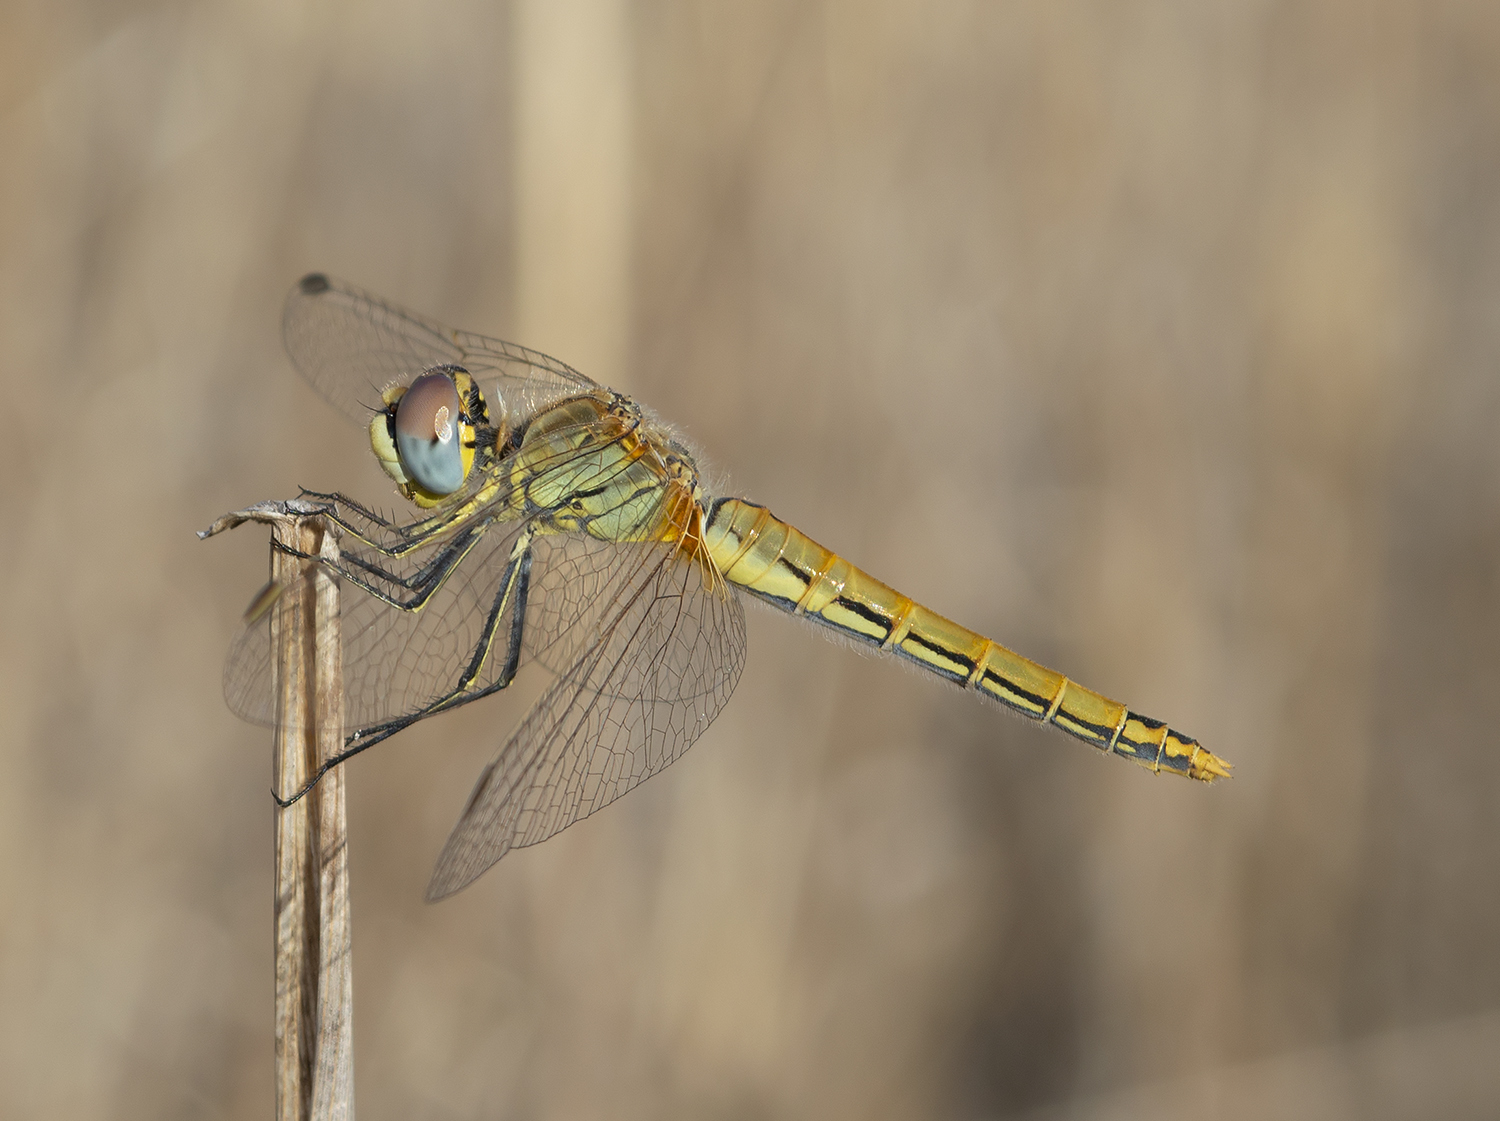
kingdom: Animalia
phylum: Arthropoda
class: Insecta
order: Odonata
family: Libellulidae
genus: Sympetrum
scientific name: Sympetrum fonscolombii
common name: Red-veined darter
